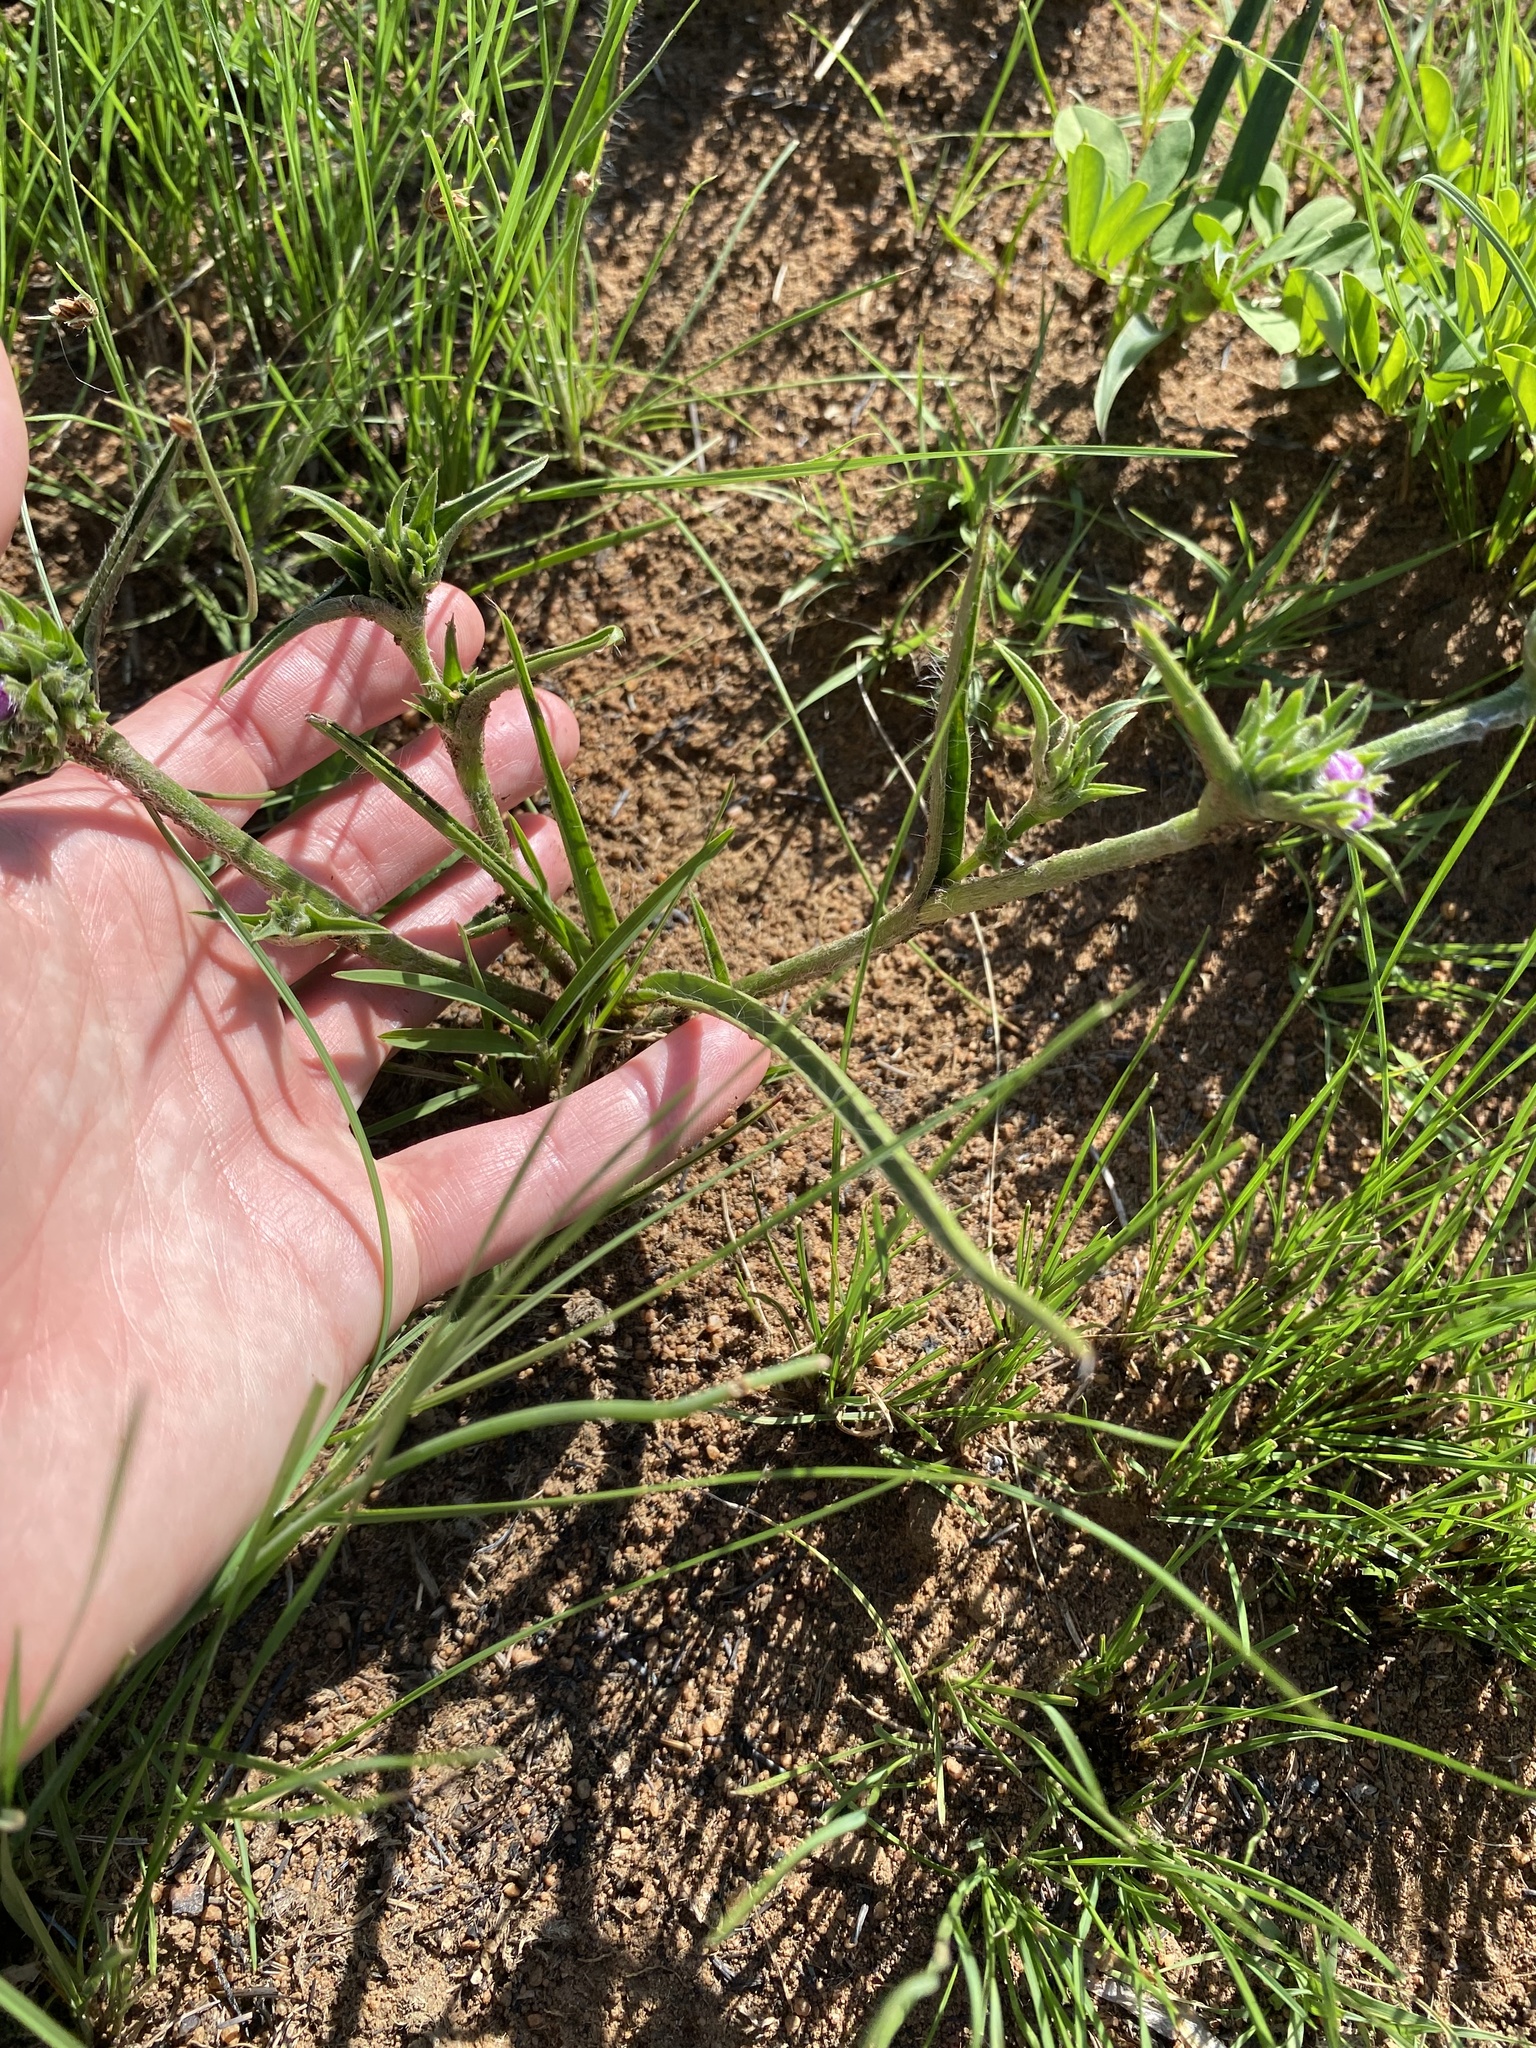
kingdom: Plantae
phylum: Tracheophyta
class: Liliopsida
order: Commelinales
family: Commelinaceae
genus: Cyanotis
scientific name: Cyanotis speciosa
